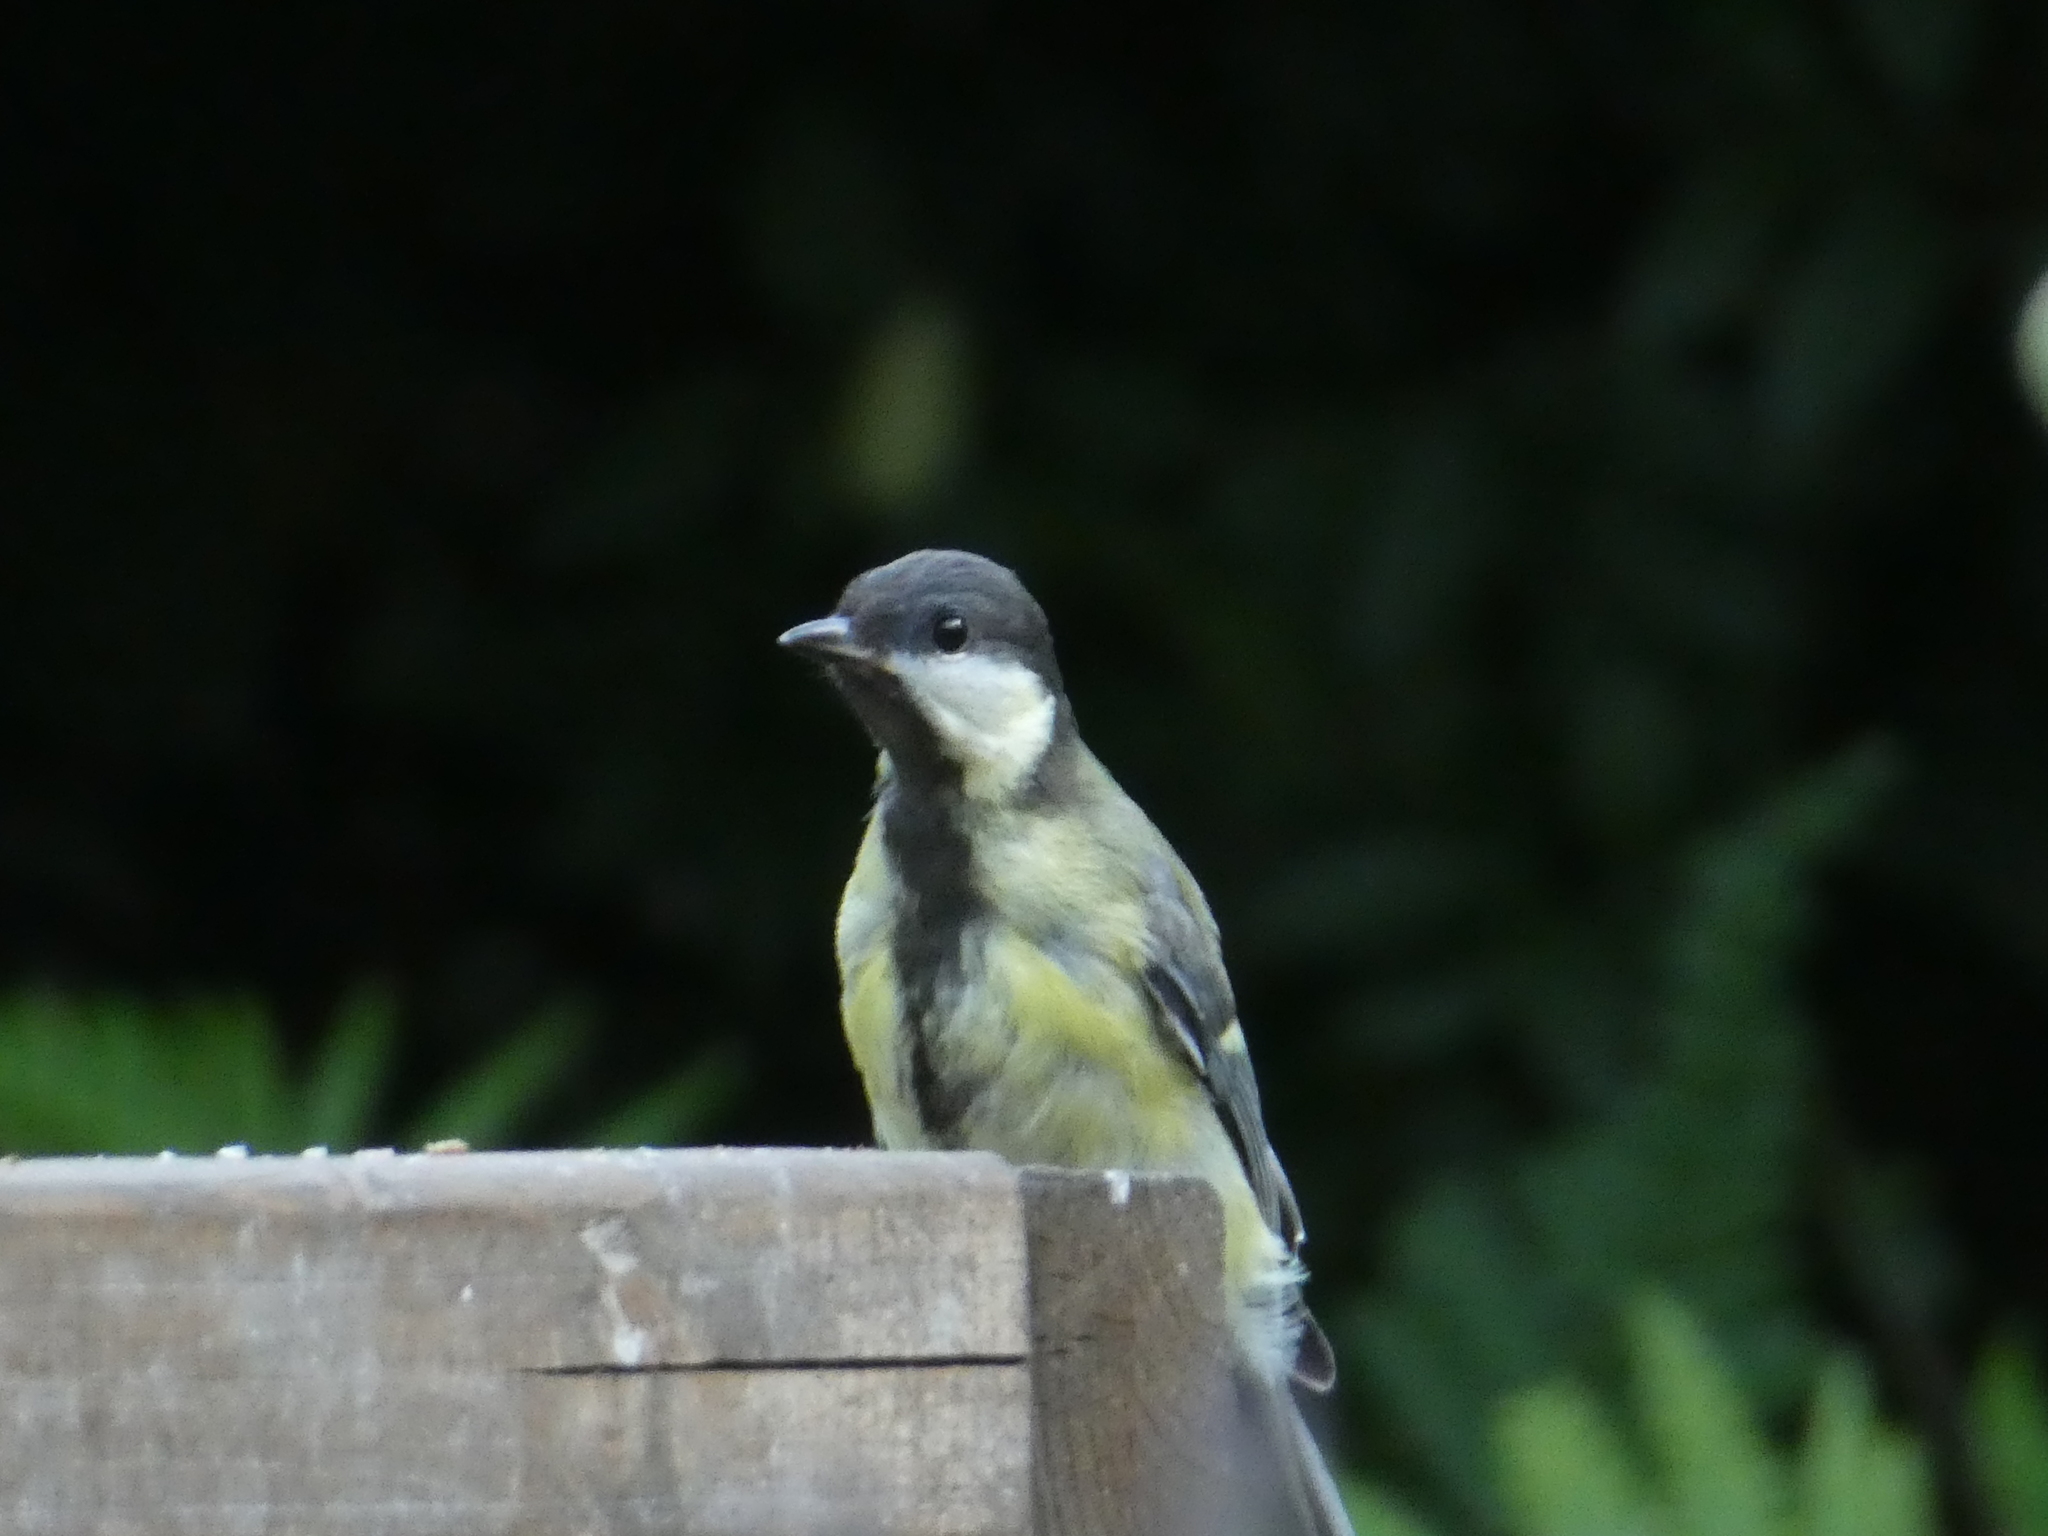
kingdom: Animalia
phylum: Chordata
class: Aves
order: Passeriformes
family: Paridae
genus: Parus
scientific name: Parus major
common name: Great tit
